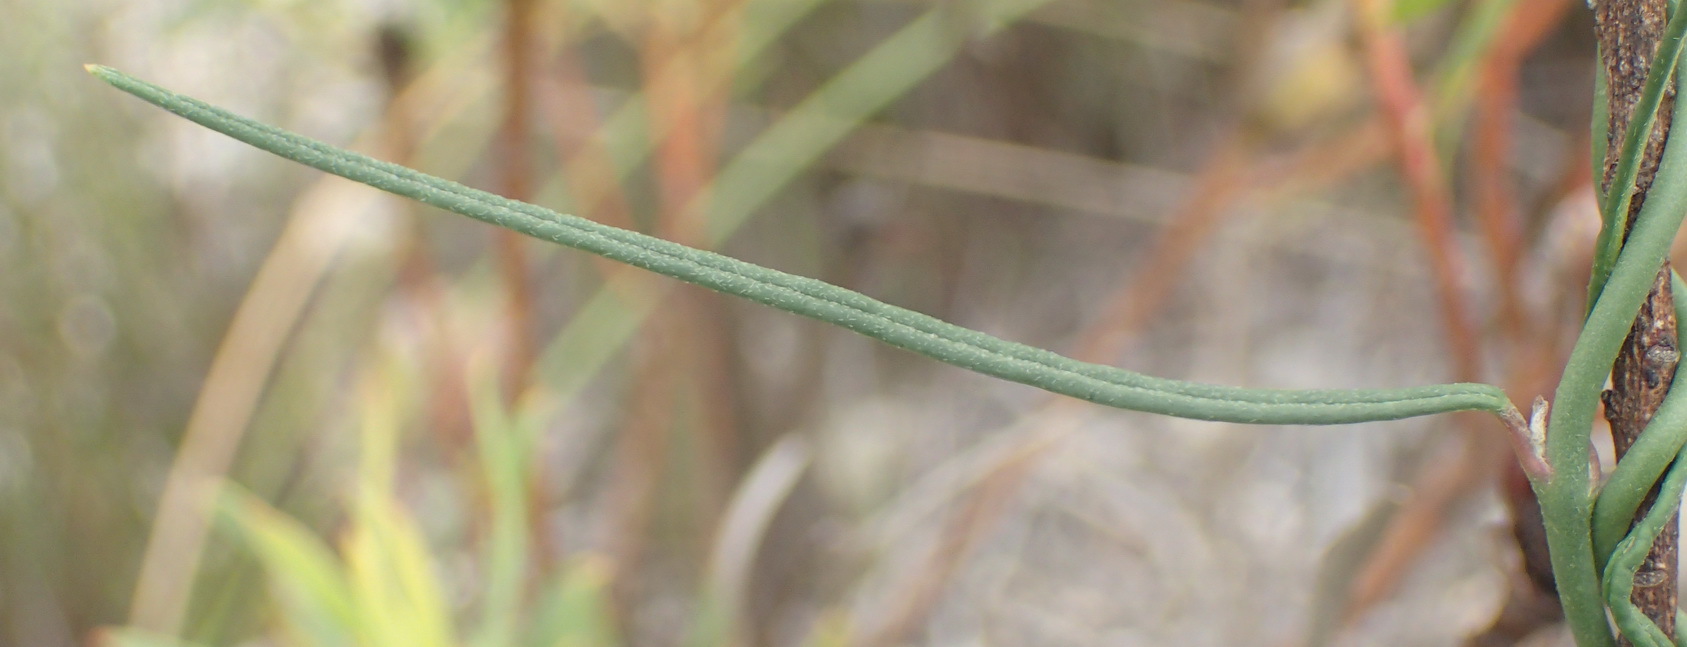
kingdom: Plantae
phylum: Tracheophyta
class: Magnoliopsida
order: Gentianales
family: Apocynaceae
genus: Microloma
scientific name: Microloma tenuifolium
